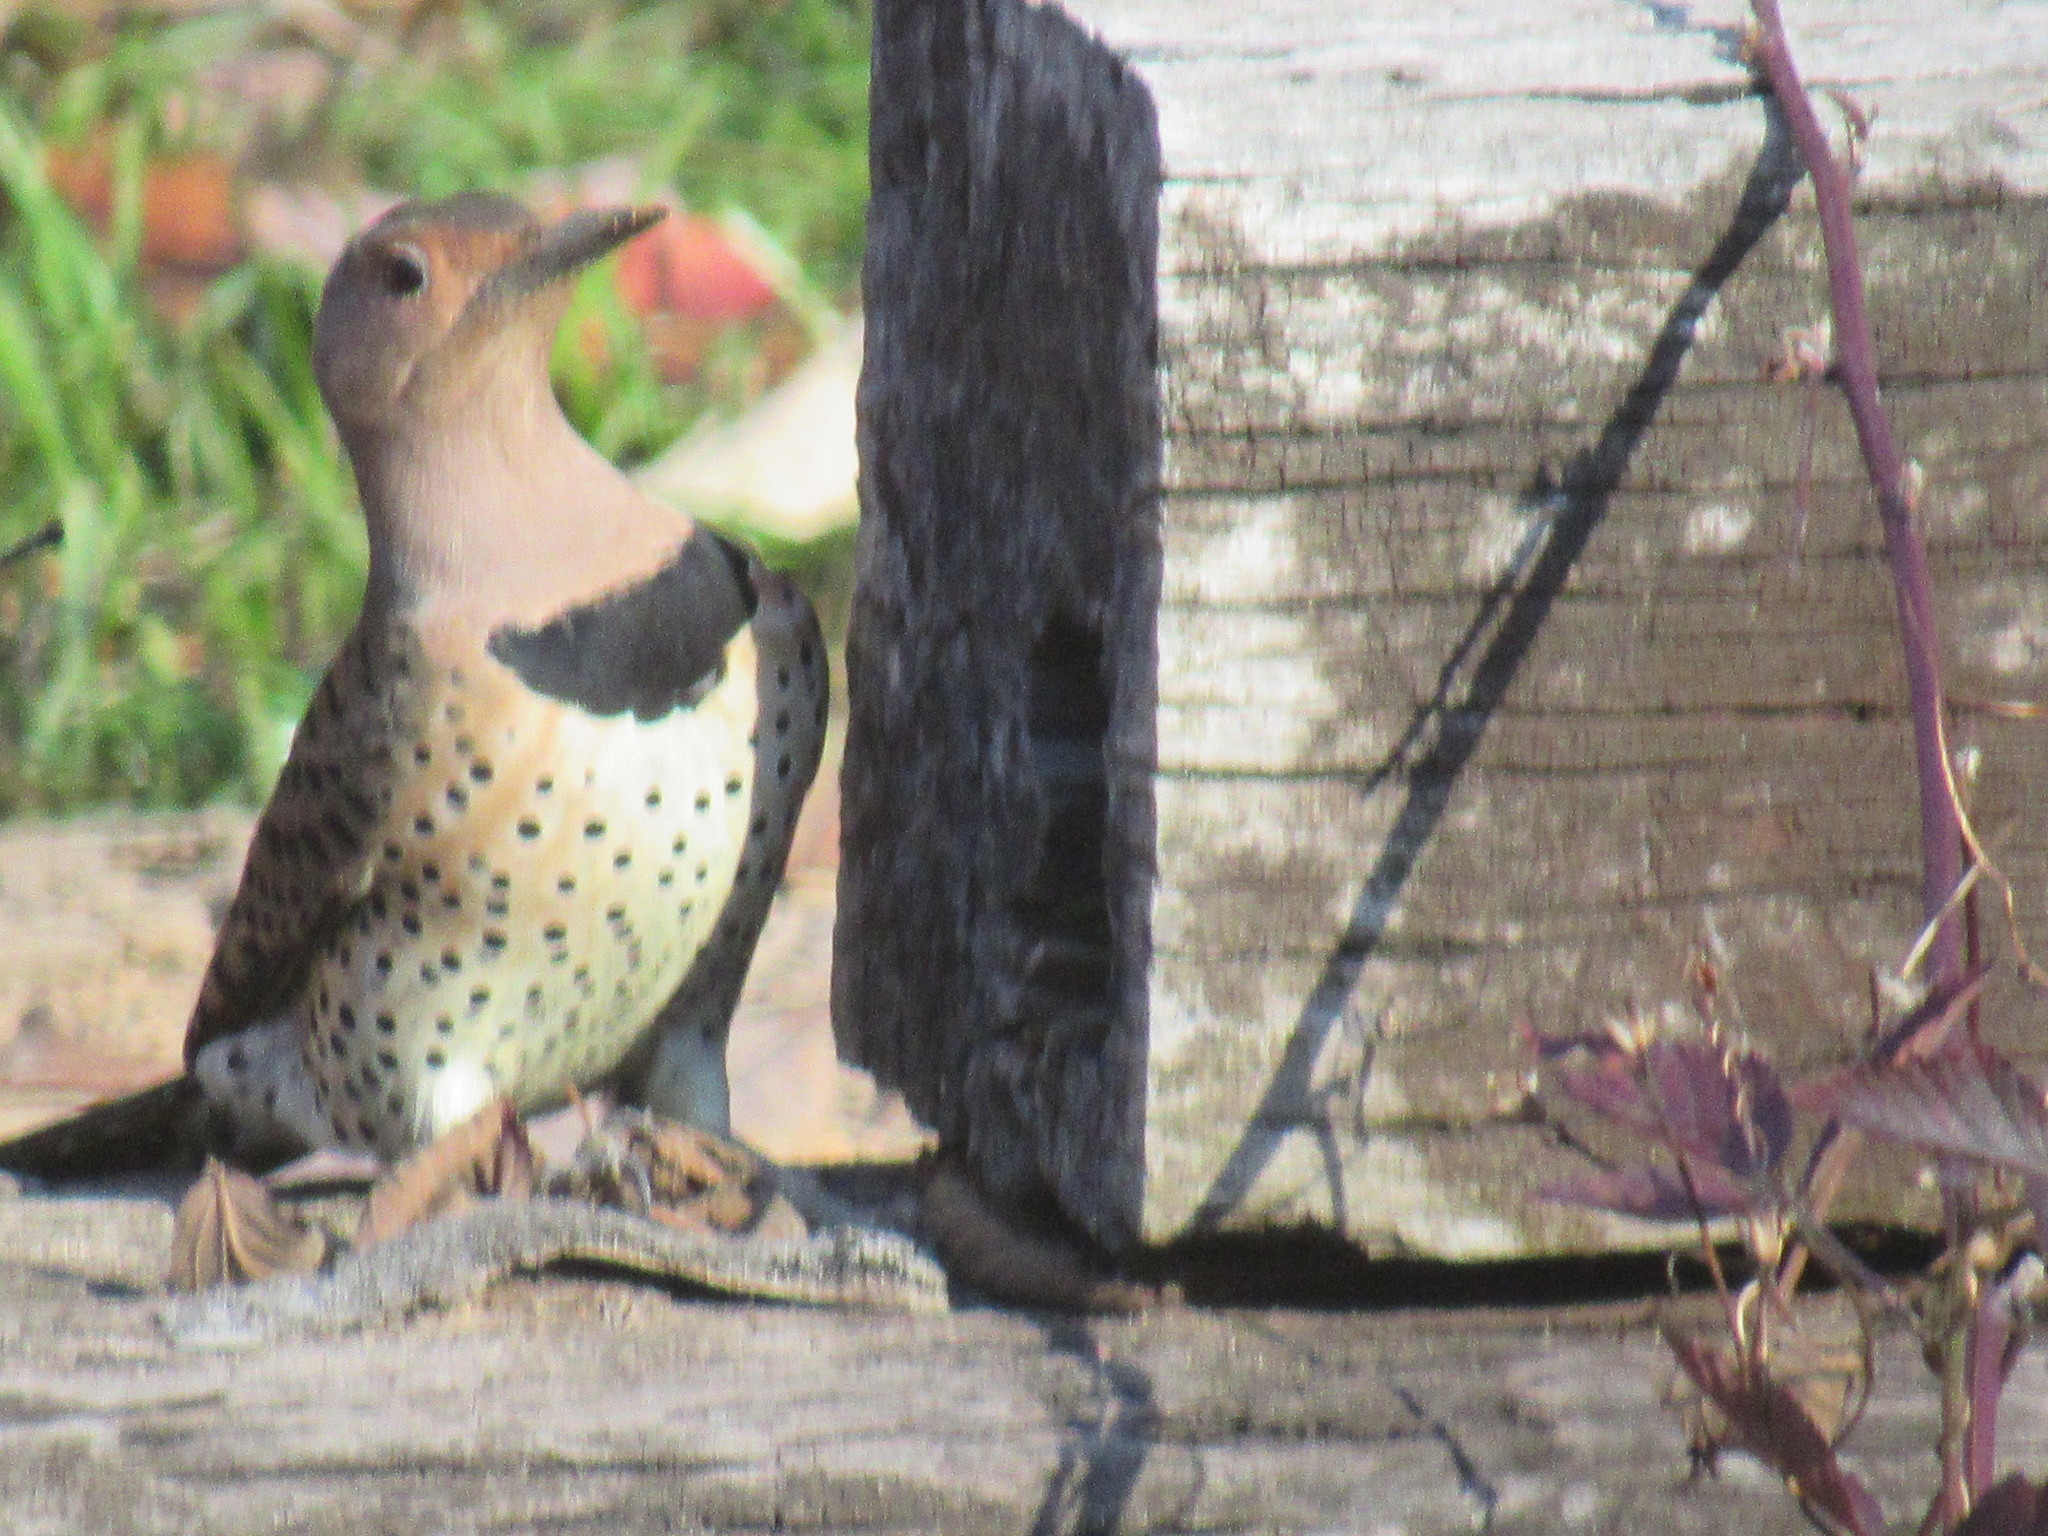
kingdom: Animalia
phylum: Chordata
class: Aves
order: Piciformes
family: Picidae
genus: Colaptes
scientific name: Colaptes auratus
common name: Northern flicker
